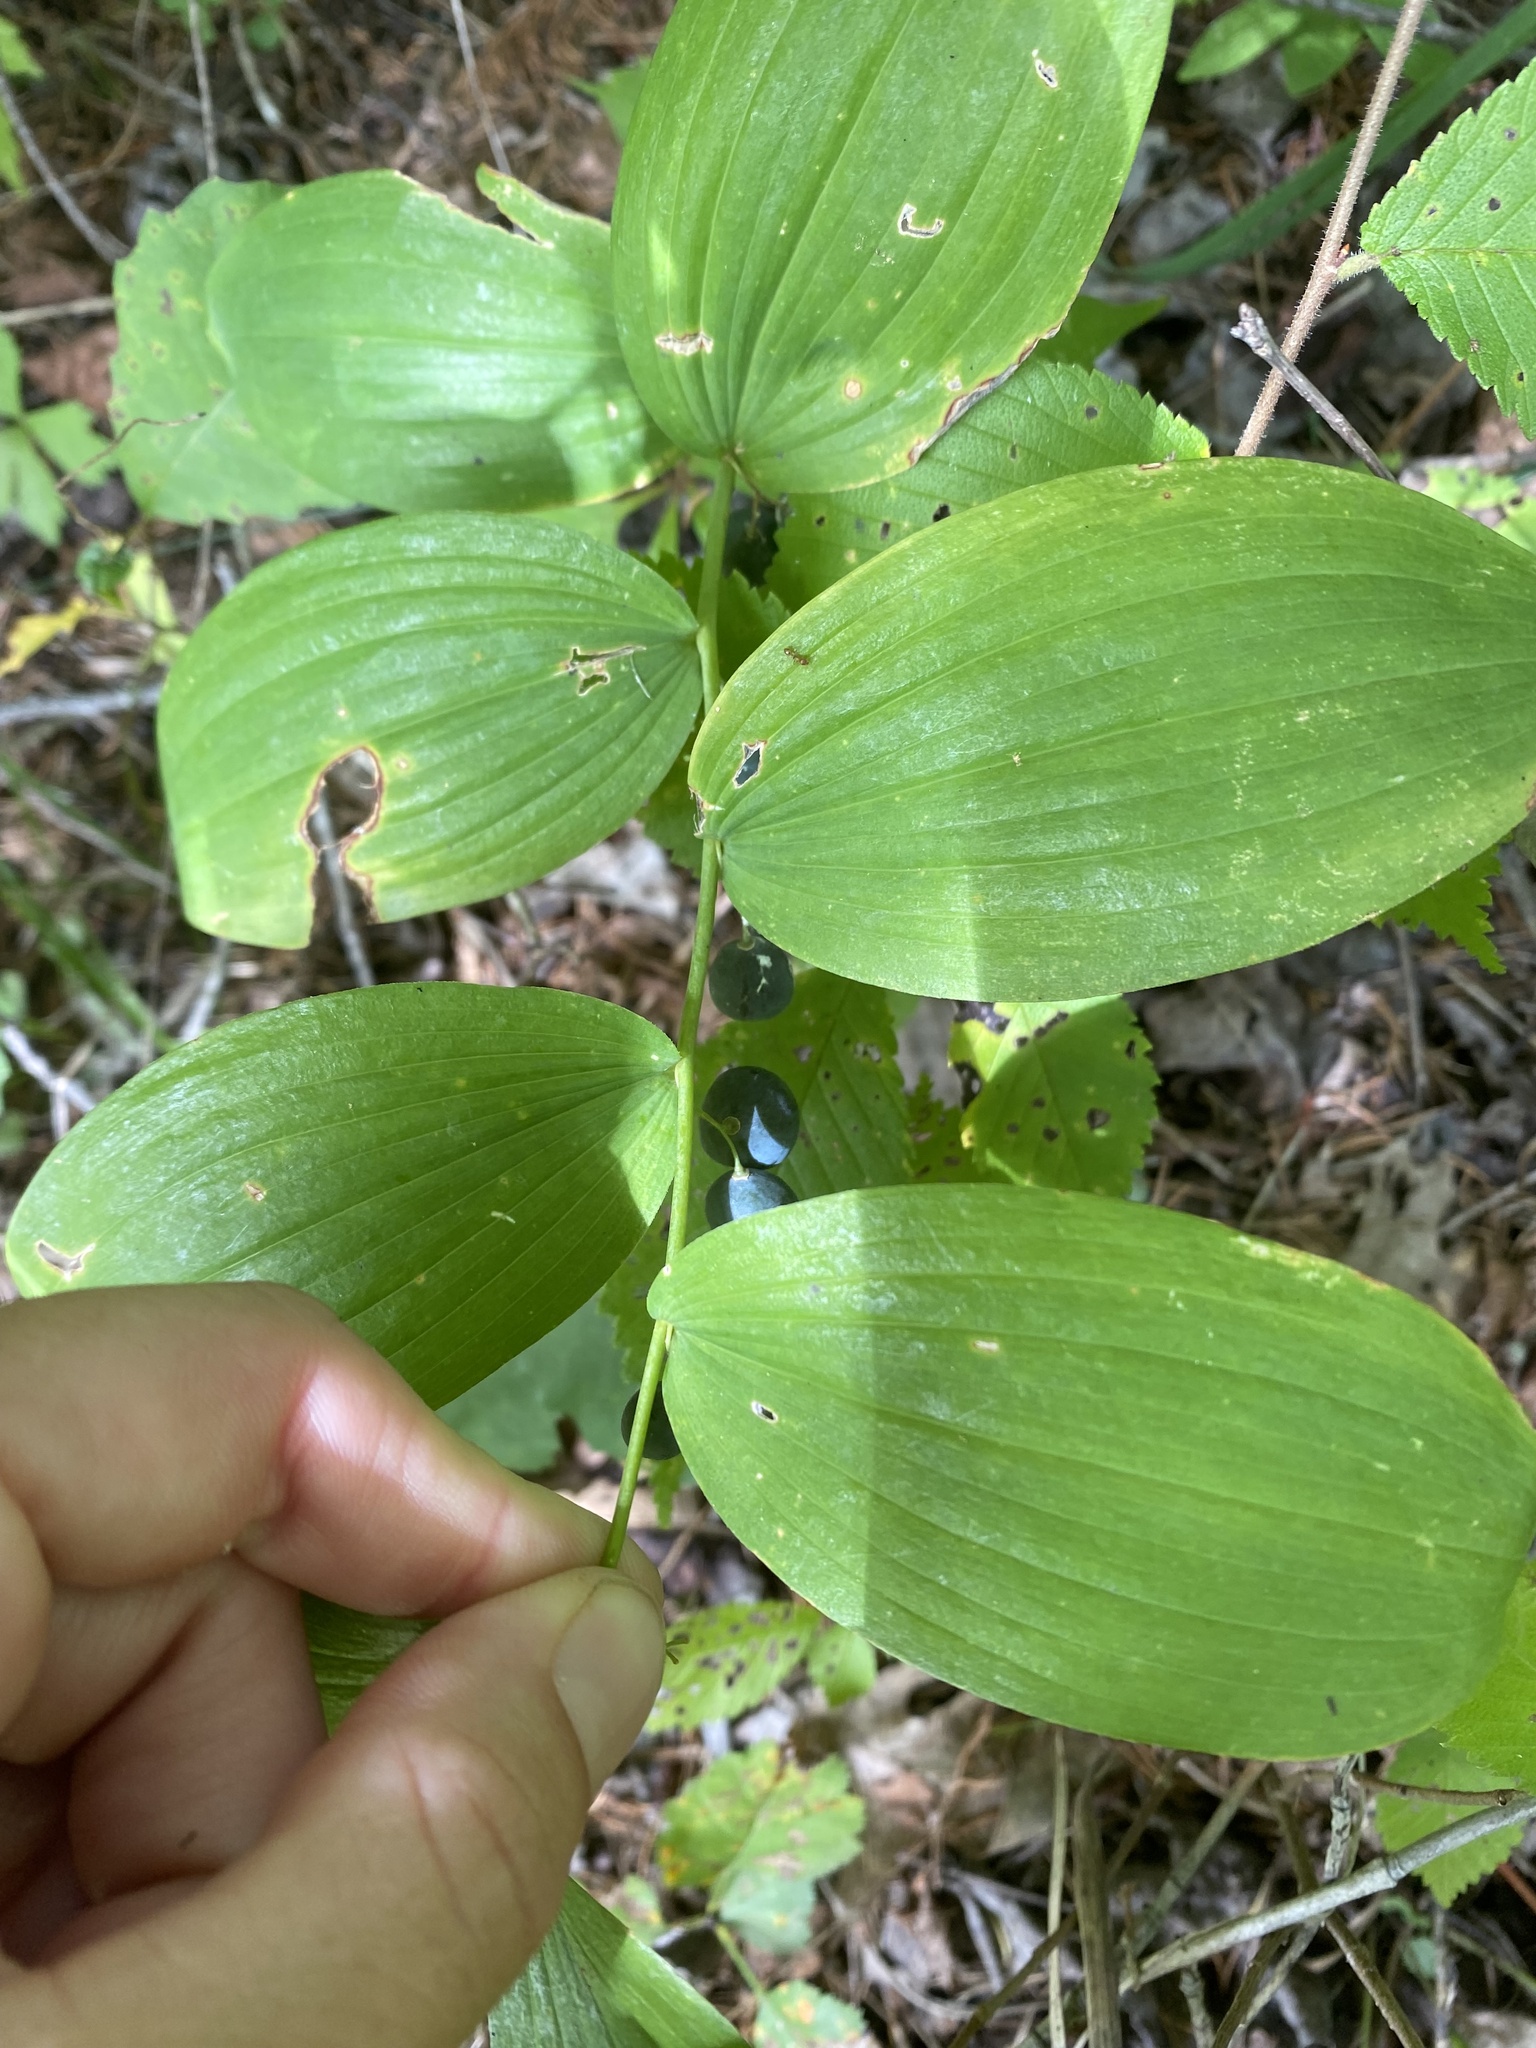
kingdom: Plantae
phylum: Tracheophyta
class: Liliopsida
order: Asparagales
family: Asparagaceae
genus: Polygonatum
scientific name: Polygonatum
